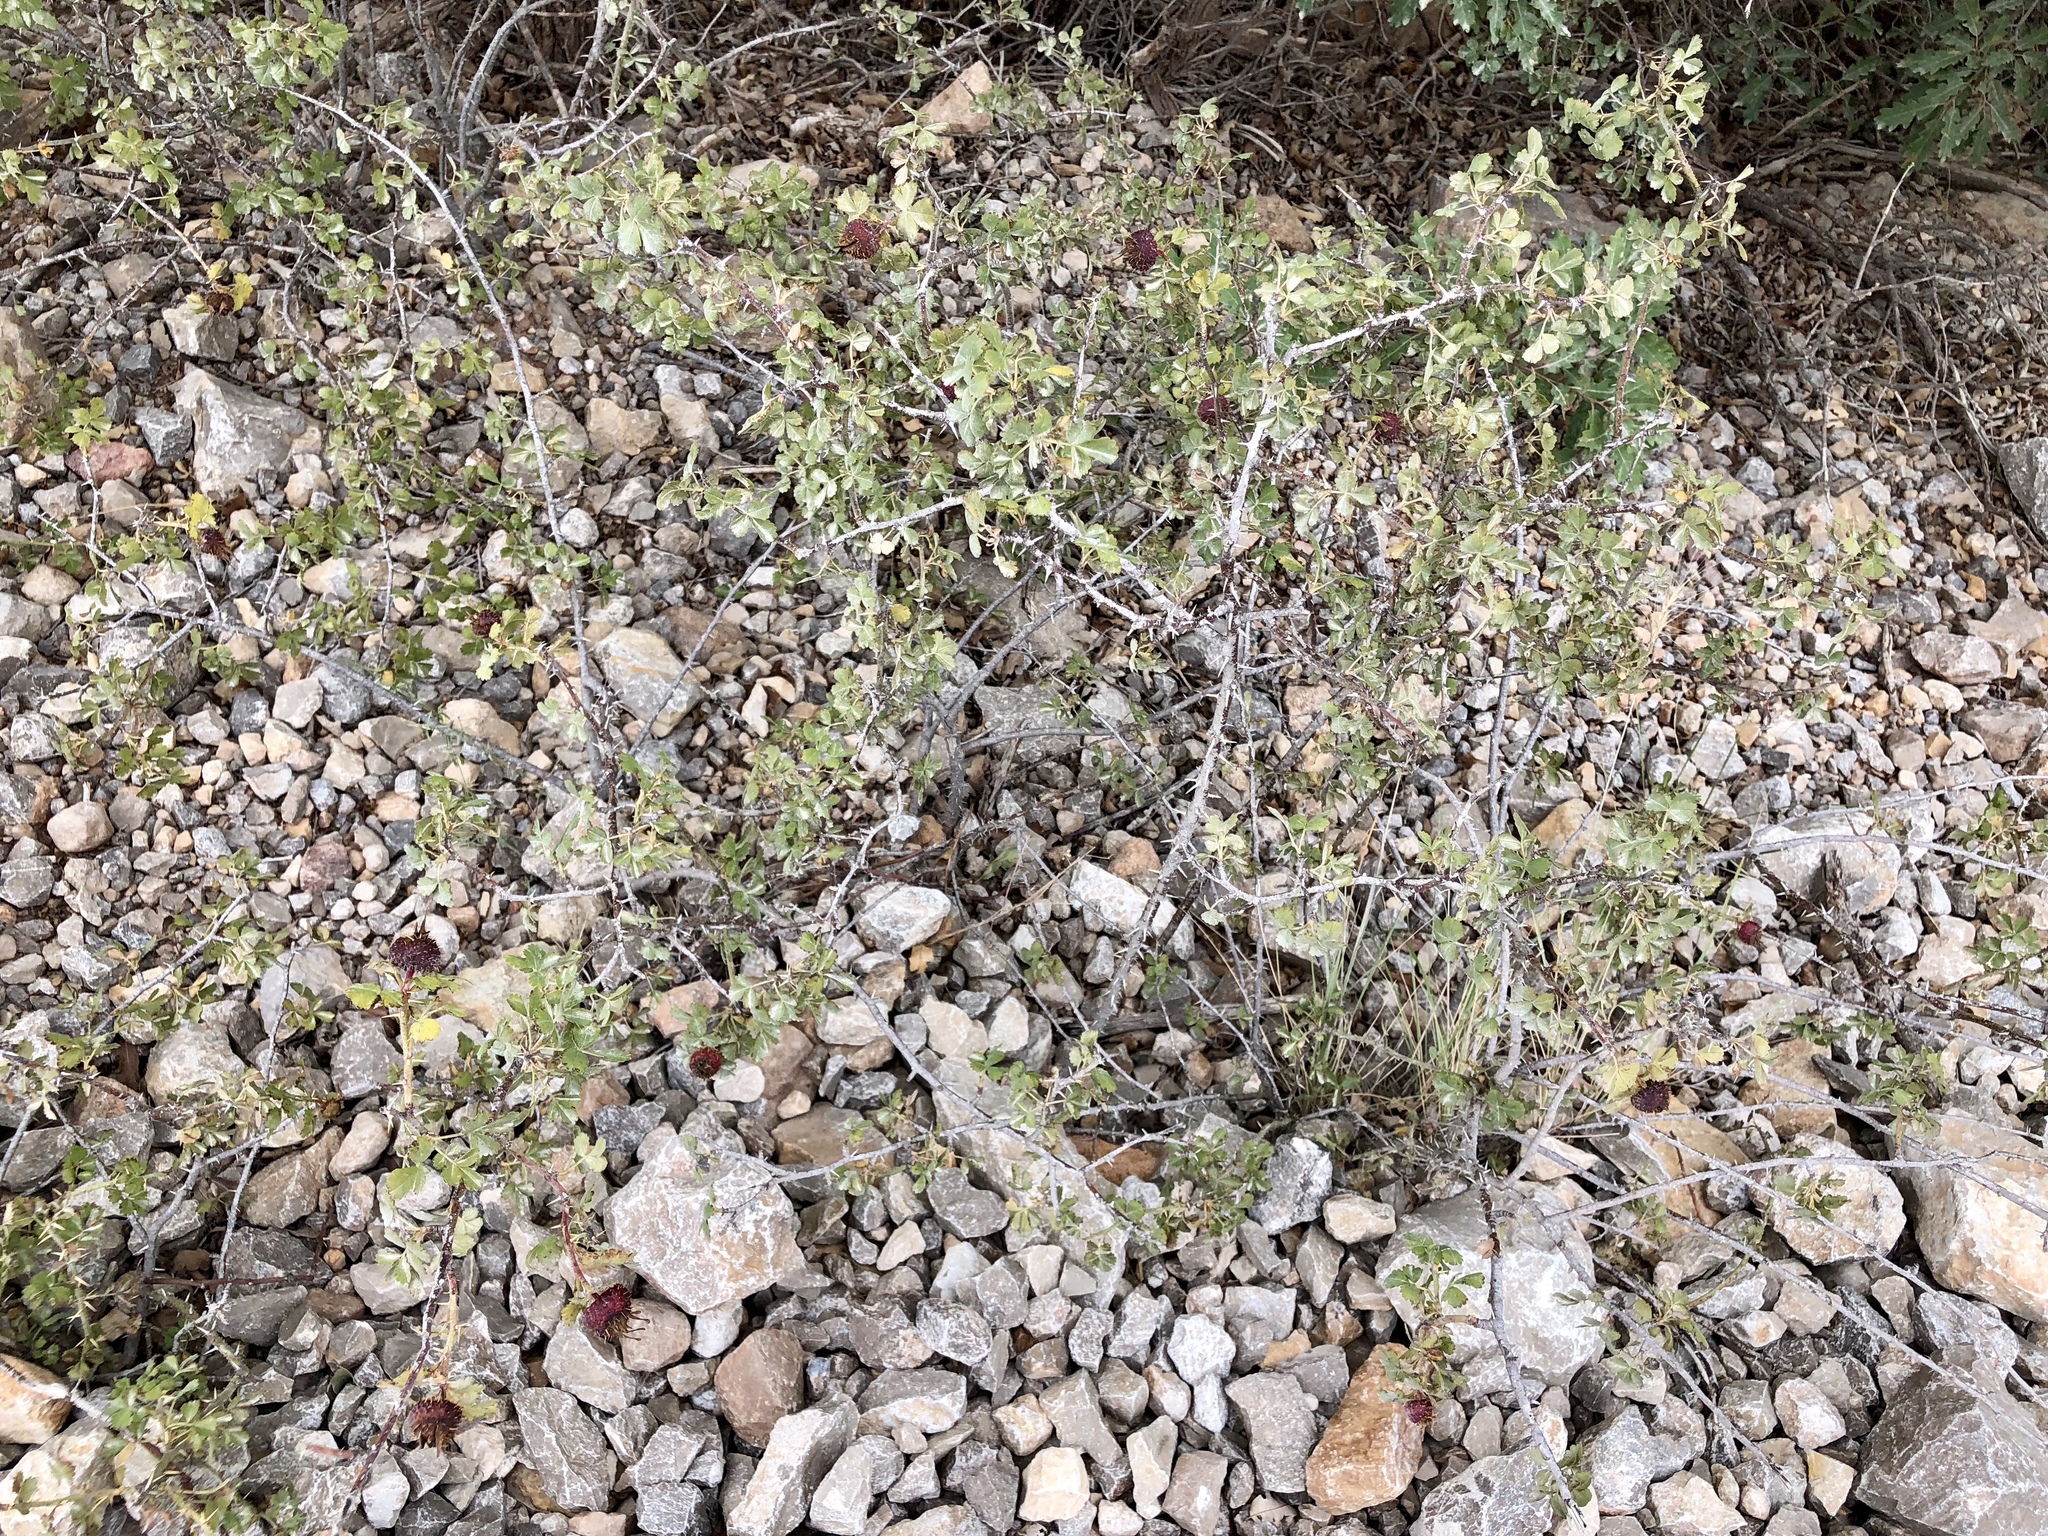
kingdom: Plantae
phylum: Tracheophyta
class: Magnoliopsida
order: Rosales
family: Rosaceae
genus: Rosa
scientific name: Rosa woodsii
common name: Woods's rose
